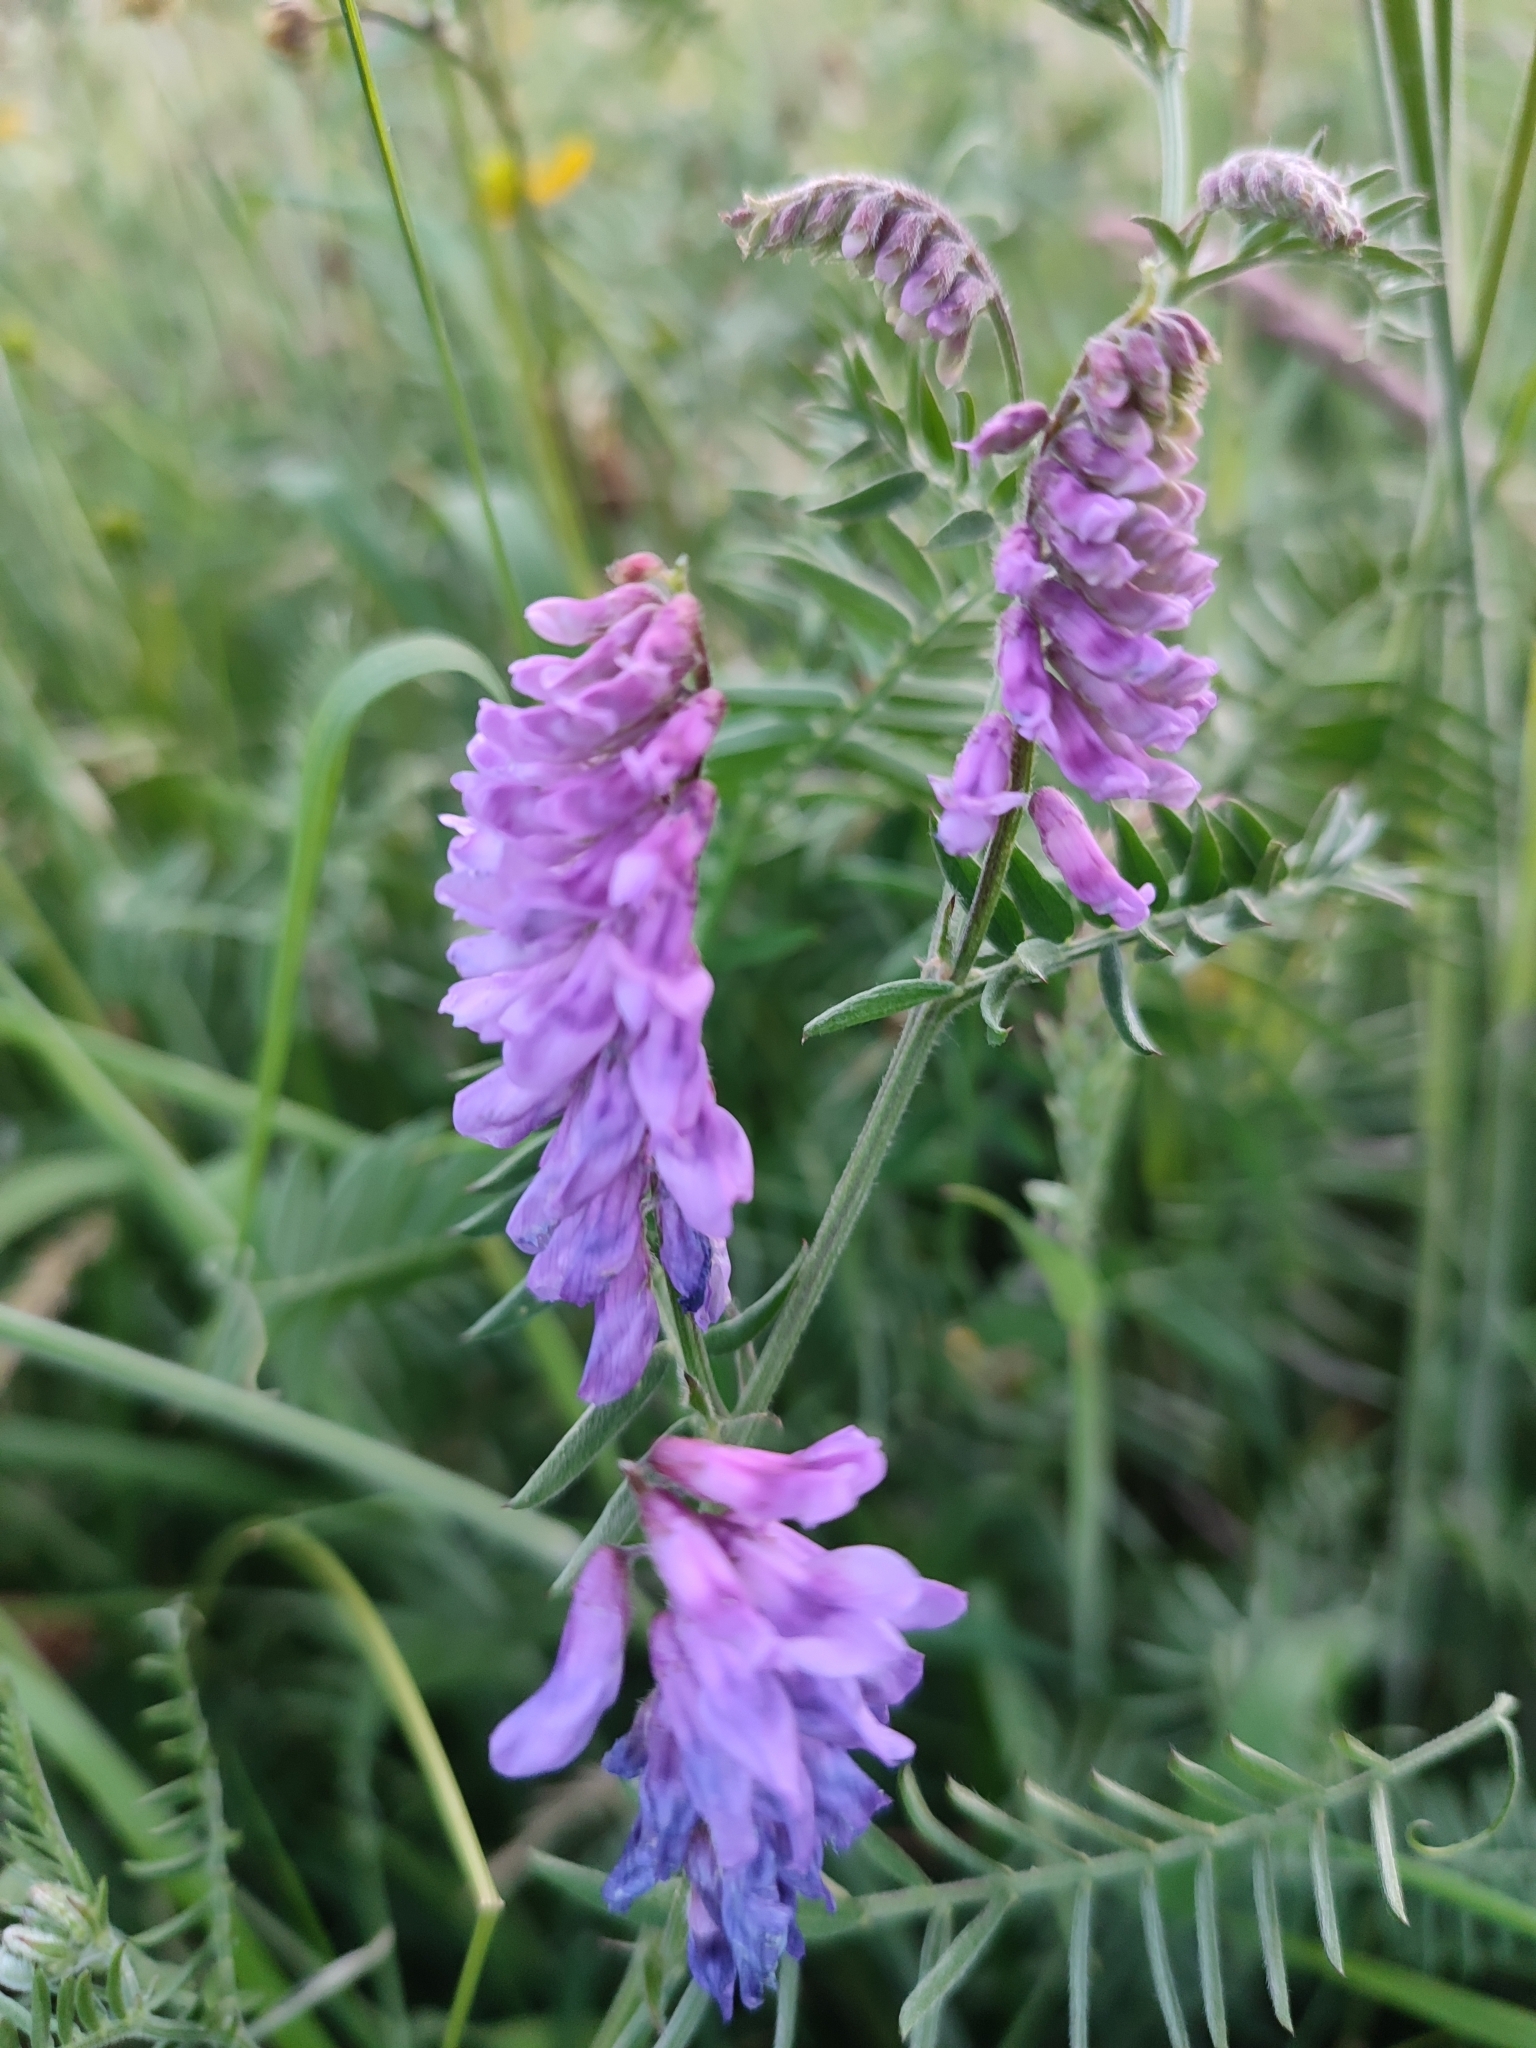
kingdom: Plantae
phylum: Tracheophyta
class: Magnoliopsida
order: Fabales
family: Fabaceae
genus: Vicia
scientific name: Vicia cracca
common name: Bird vetch
